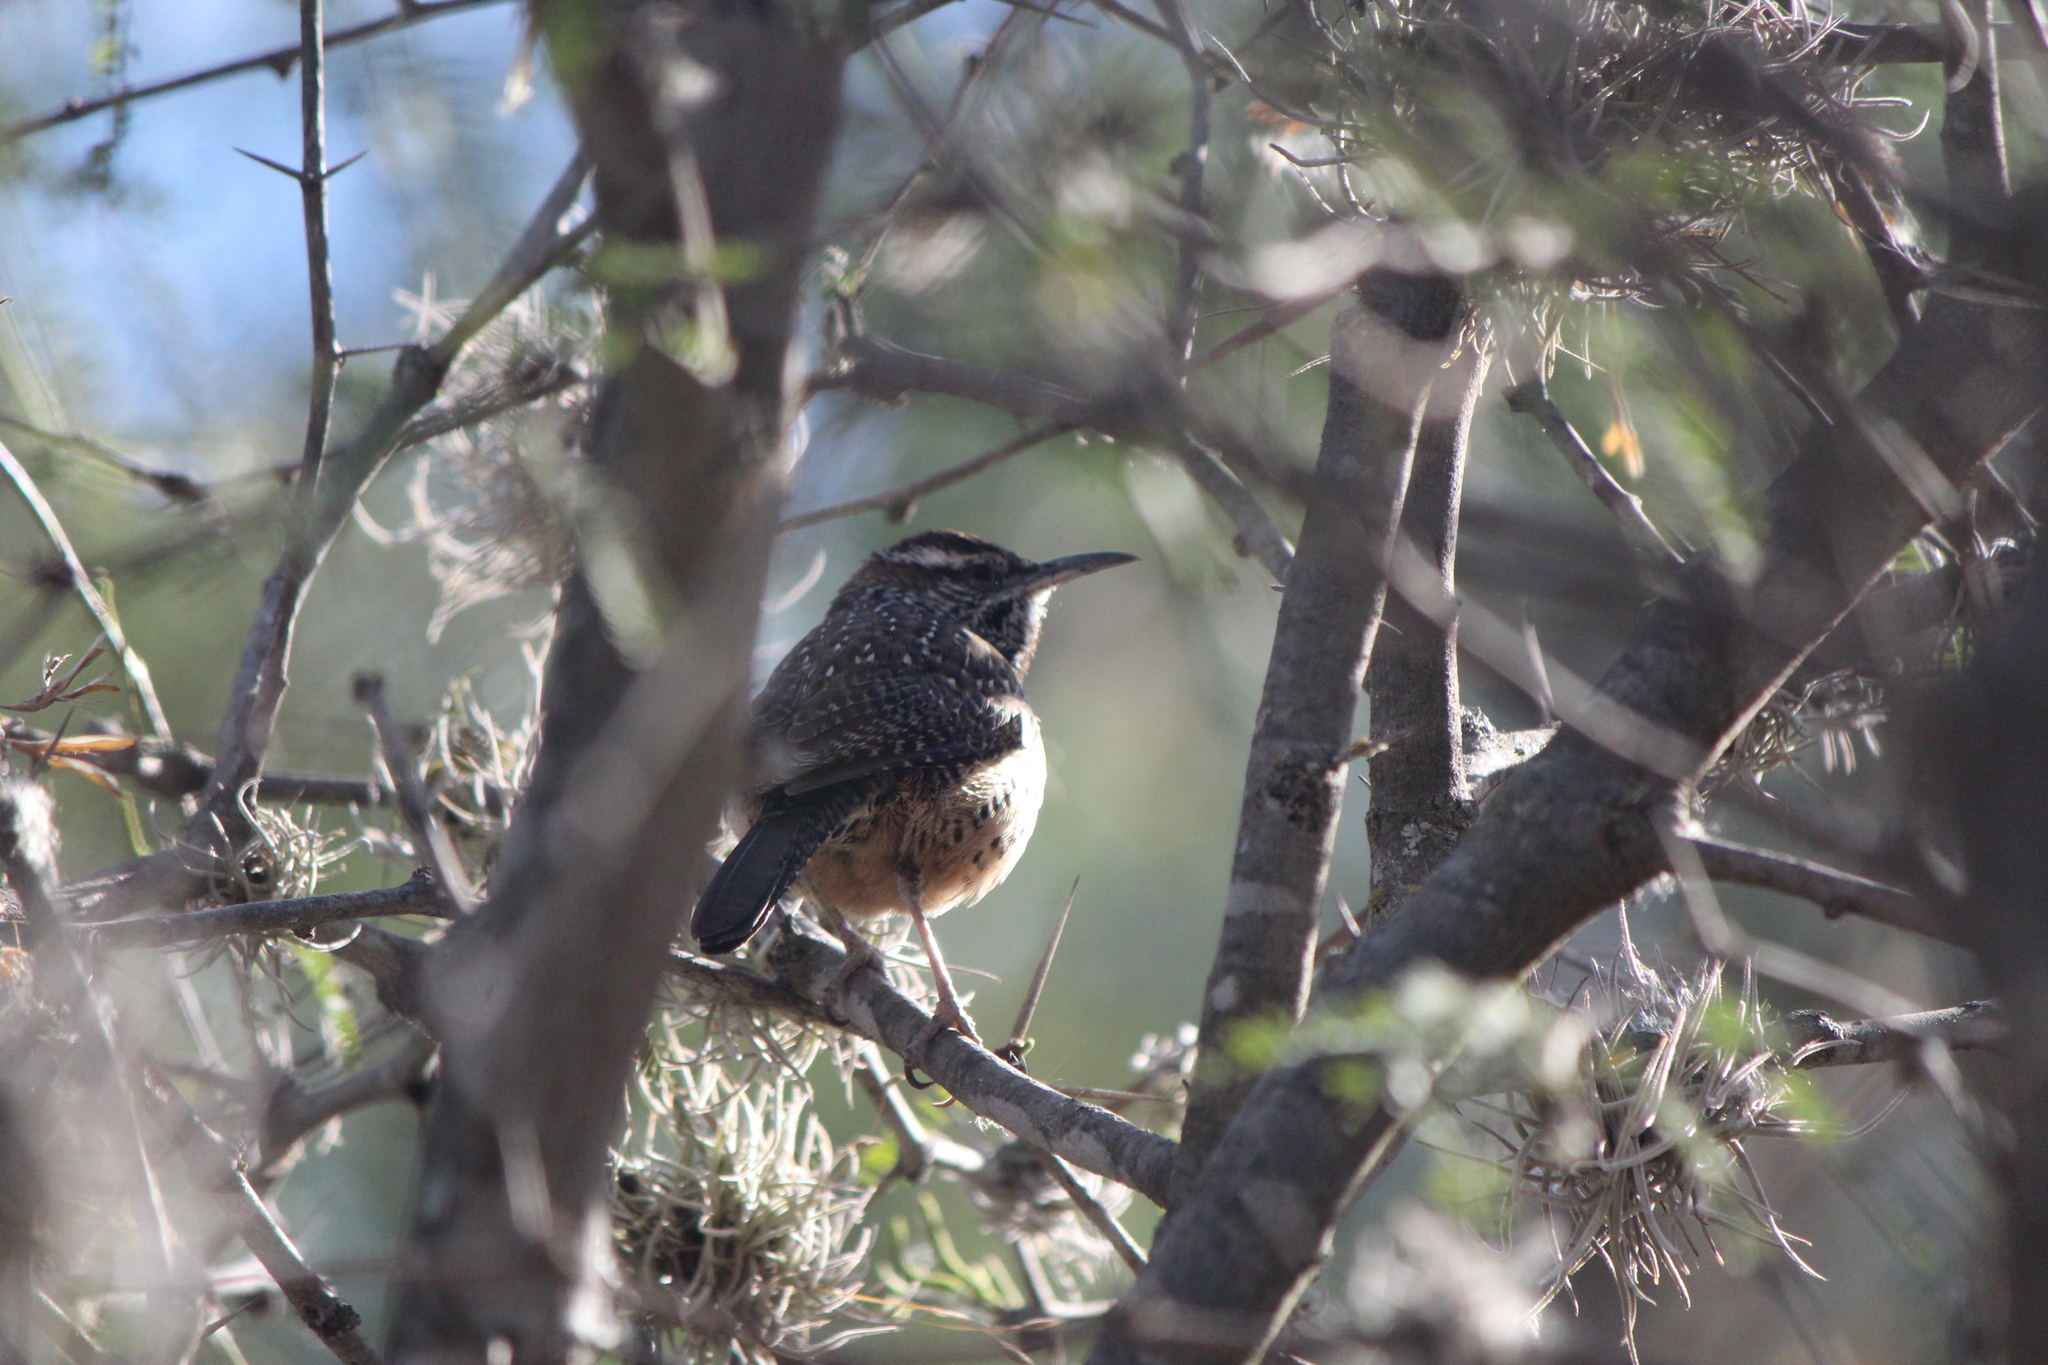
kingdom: Animalia
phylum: Chordata
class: Aves
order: Passeriformes
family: Troglodytidae
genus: Campylorhynchus
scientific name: Campylorhynchus brunneicapillus
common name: Cactus wren
